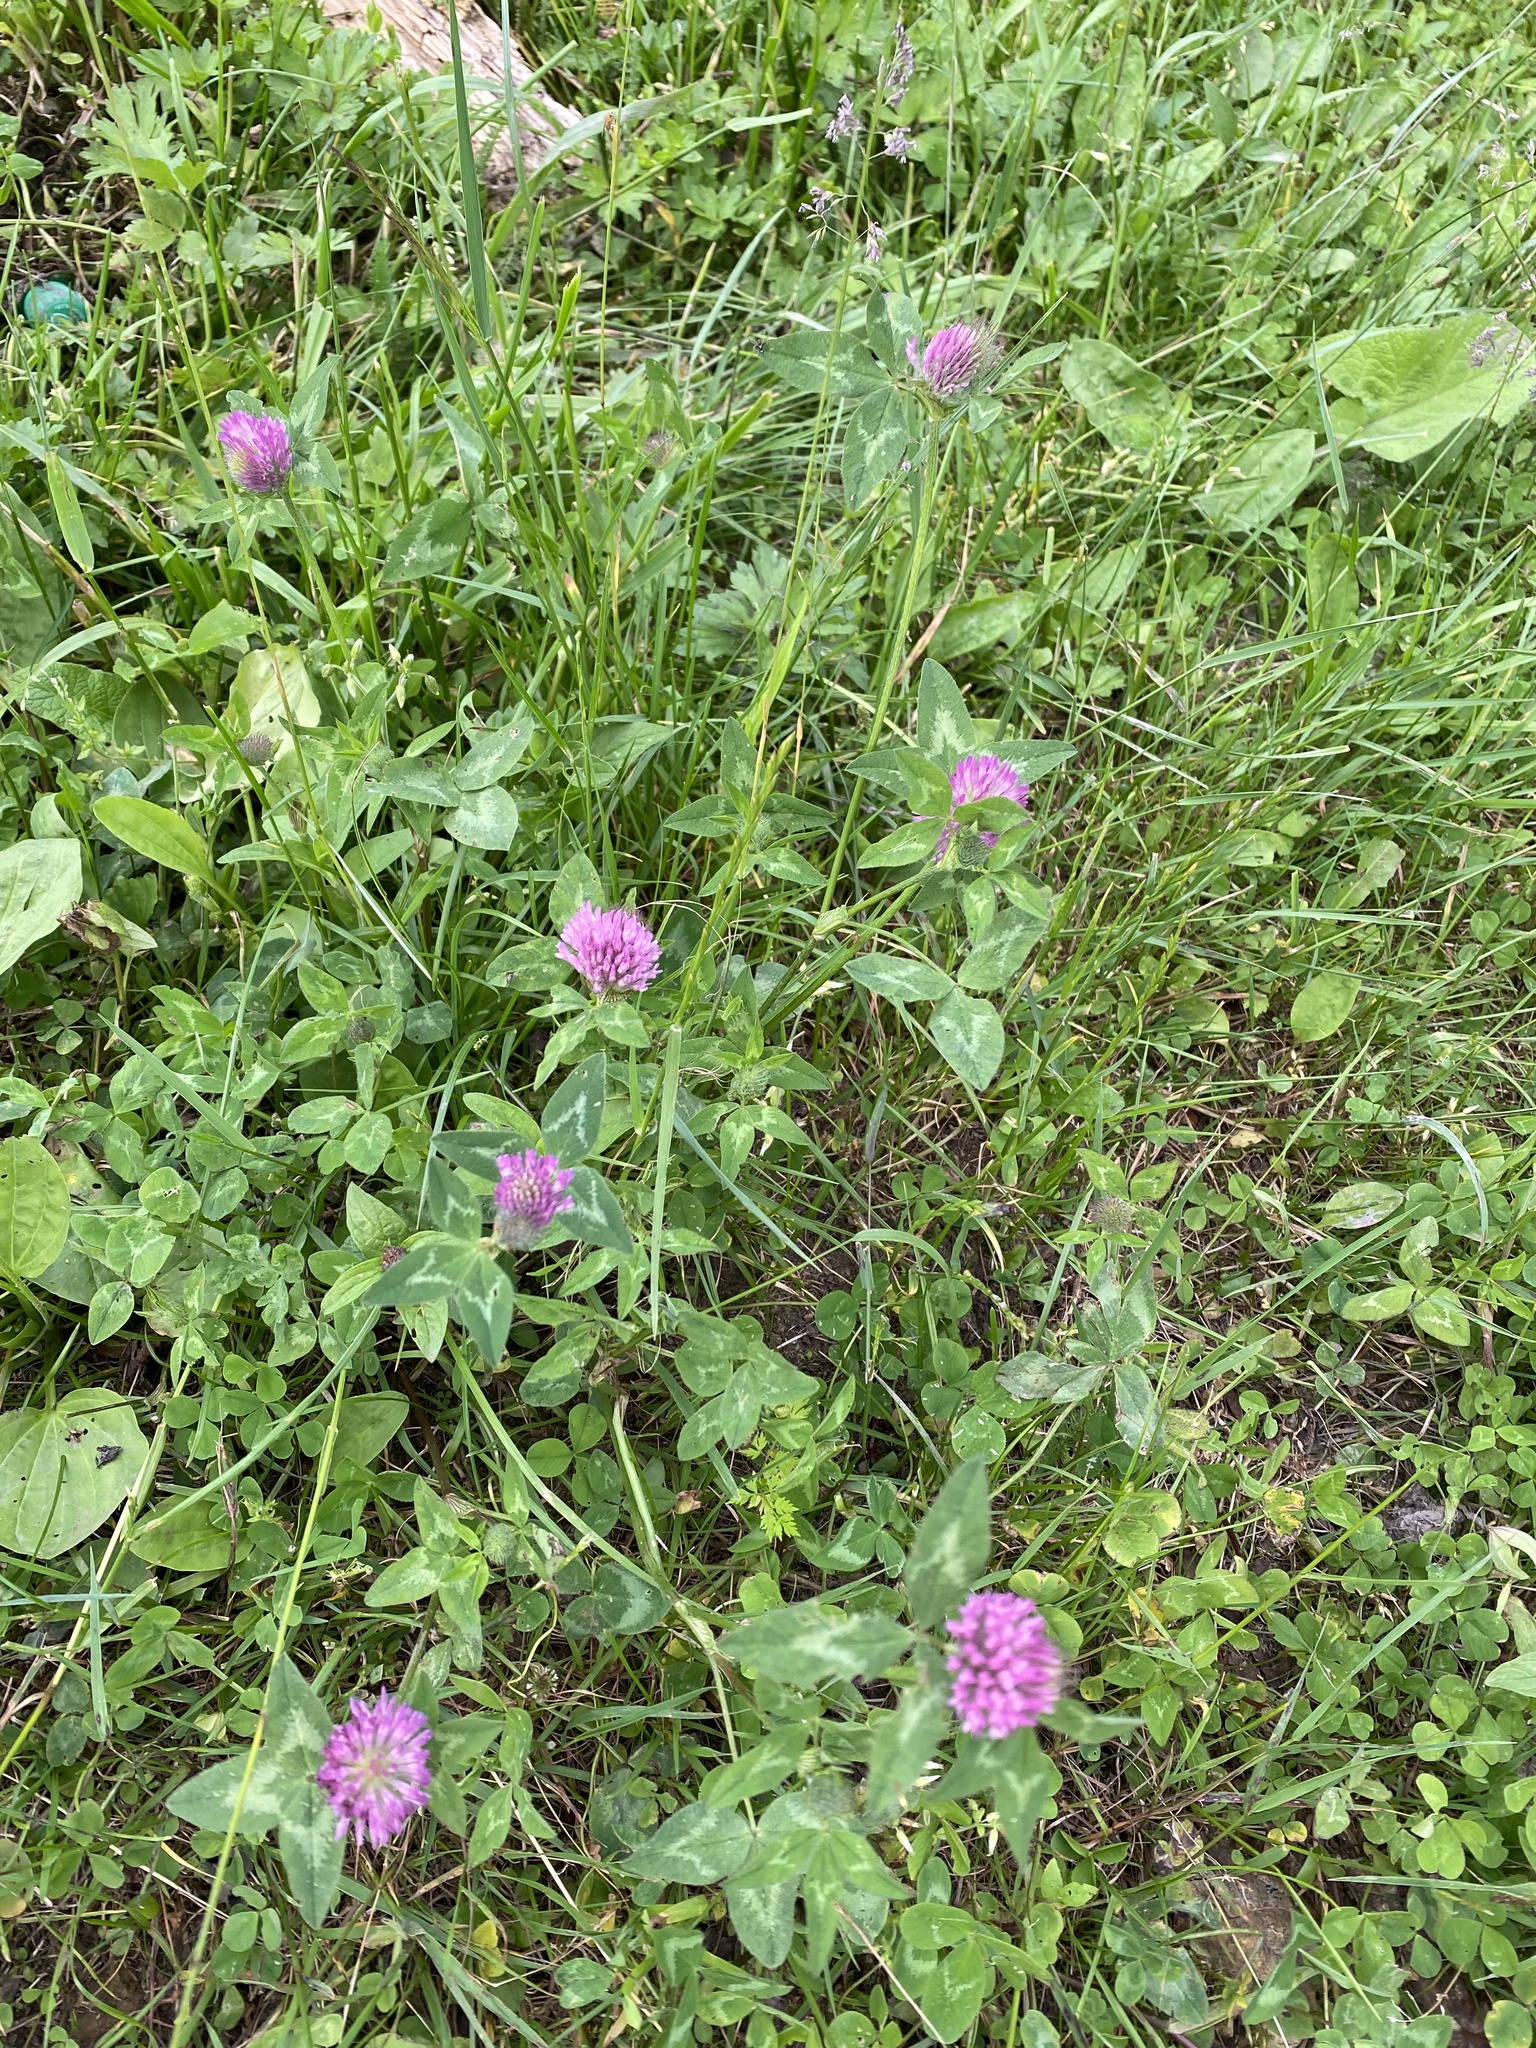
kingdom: Plantae
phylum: Tracheophyta
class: Magnoliopsida
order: Fabales
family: Fabaceae
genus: Trifolium
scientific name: Trifolium pratense
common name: Red clover
